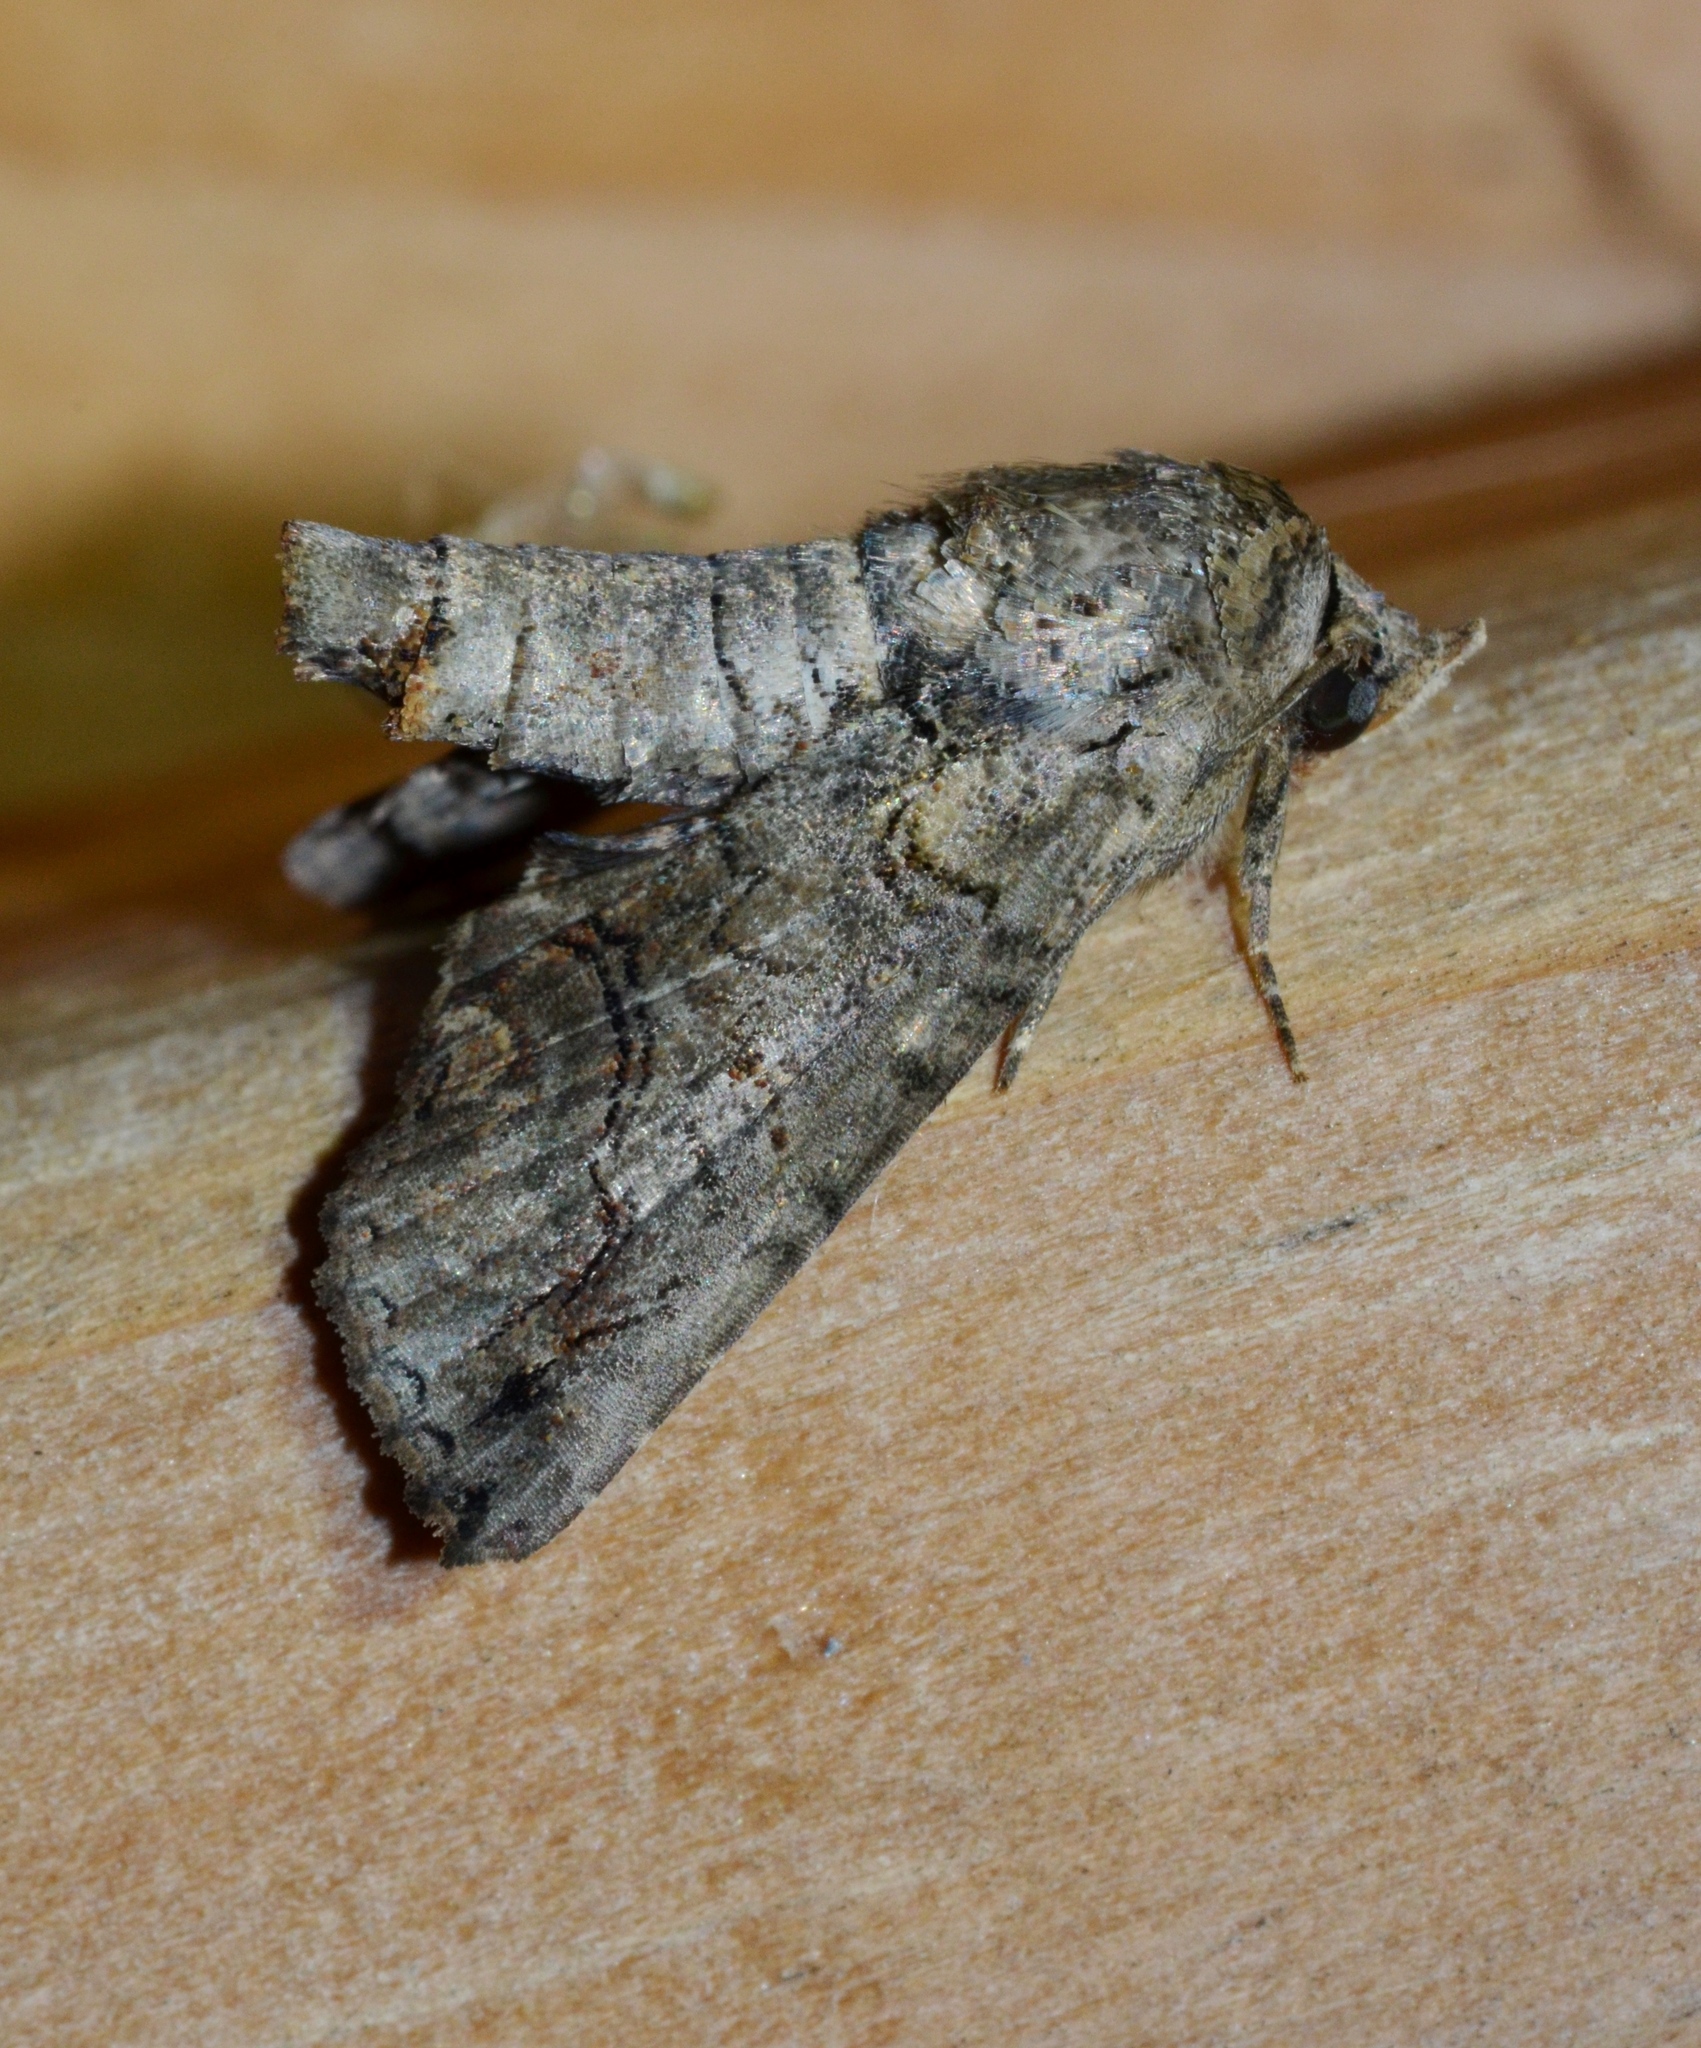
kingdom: Animalia
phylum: Arthropoda
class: Insecta
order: Lepidoptera
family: Euteliidae
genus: Paectes
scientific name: Paectes abrostoloides
